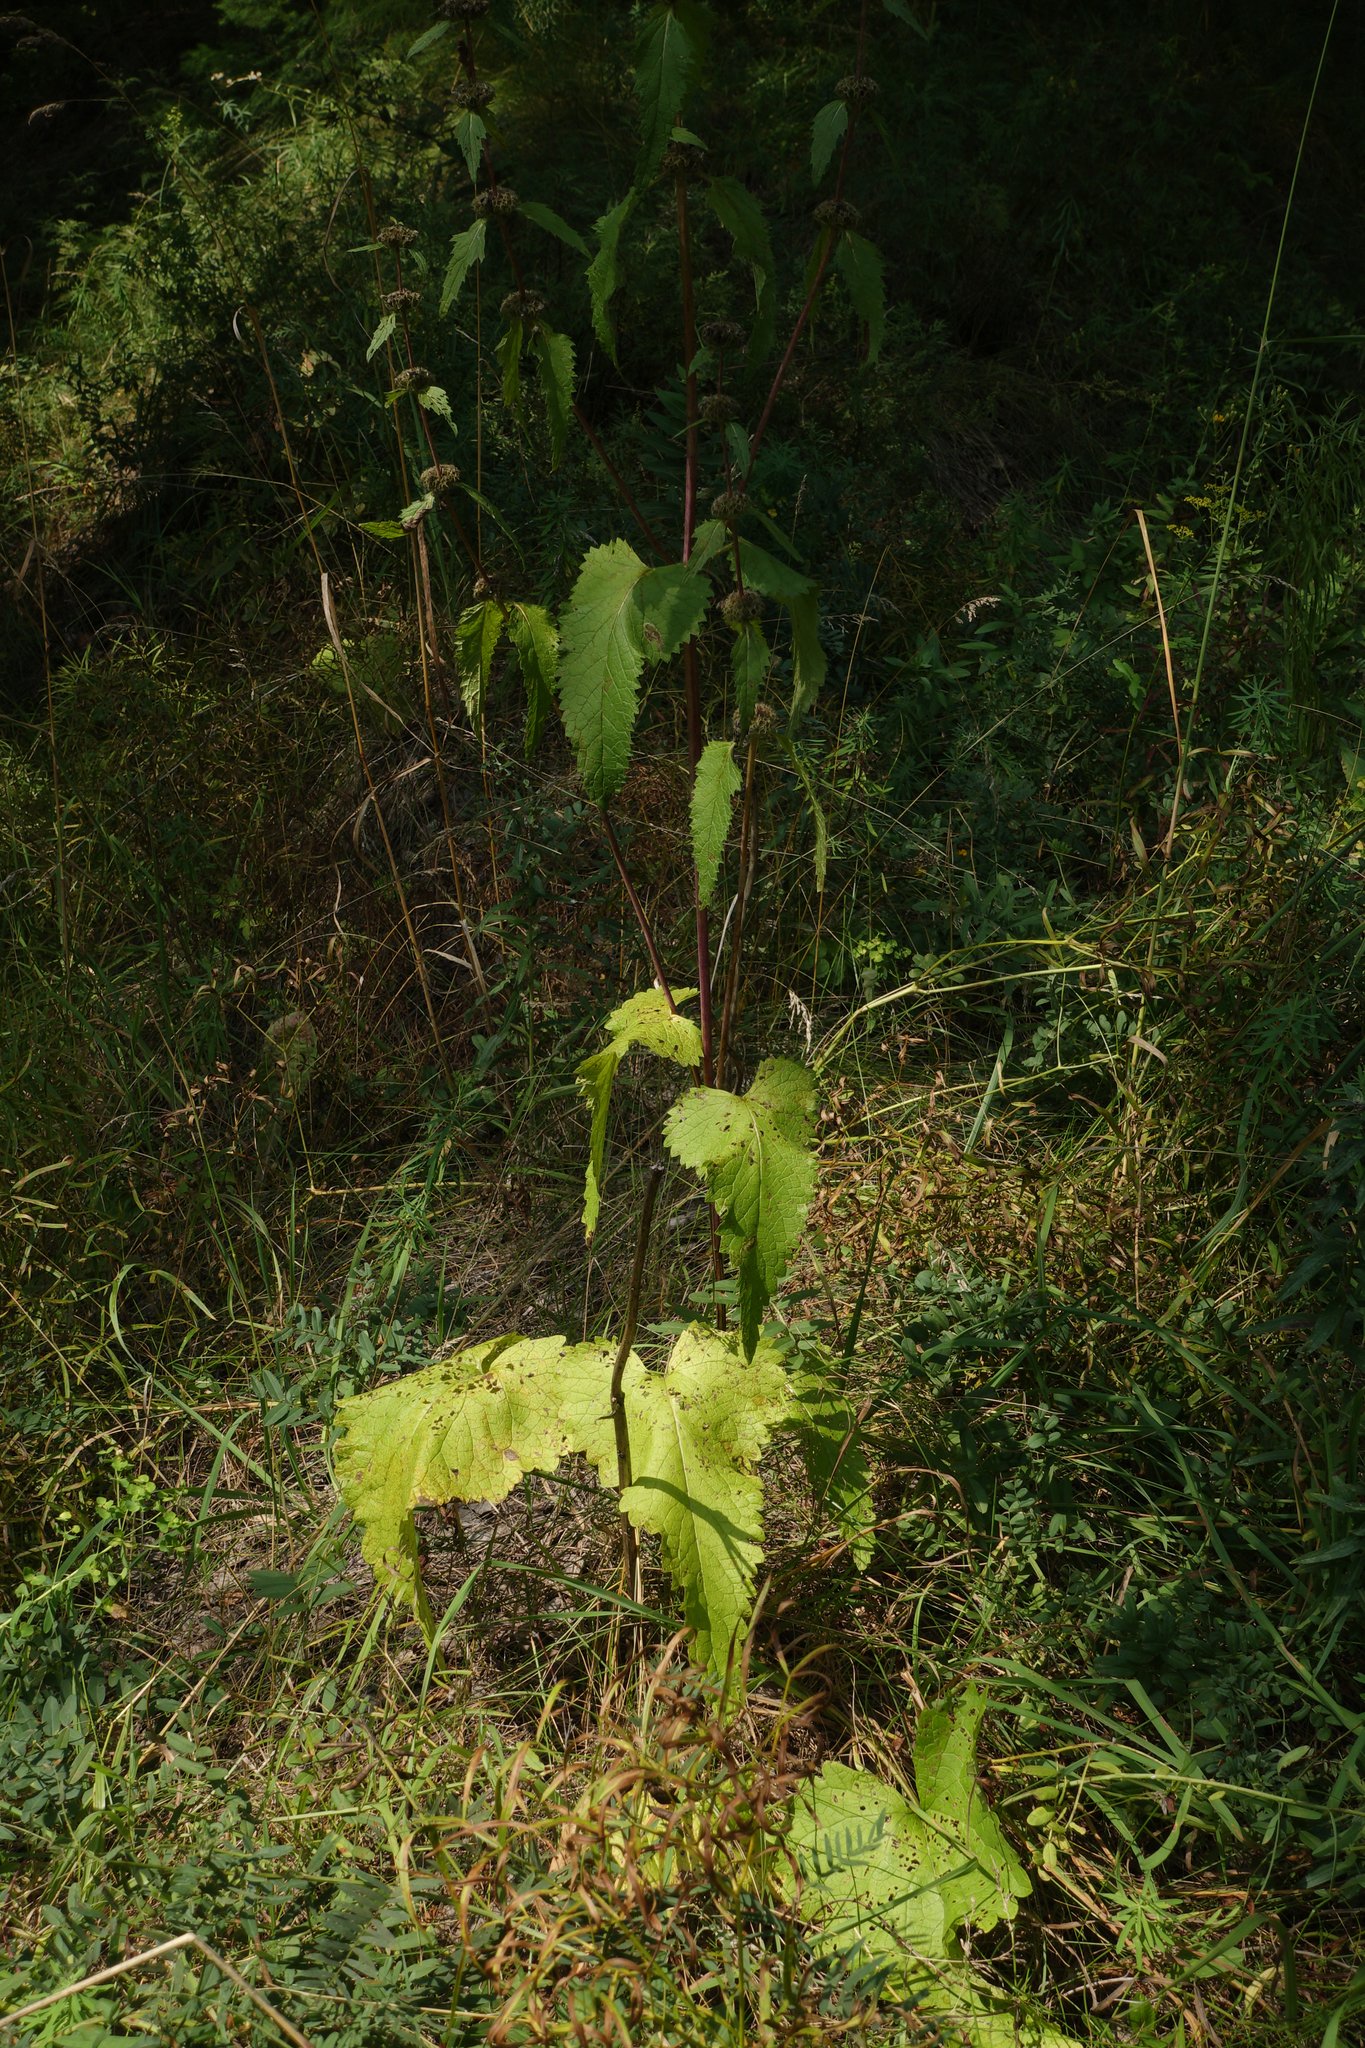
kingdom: Plantae
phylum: Tracheophyta
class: Magnoliopsida
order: Lamiales
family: Lamiaceae
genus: Phlomoides
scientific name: Phlomoides tuberosa
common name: Tuberous jerusalem sage
